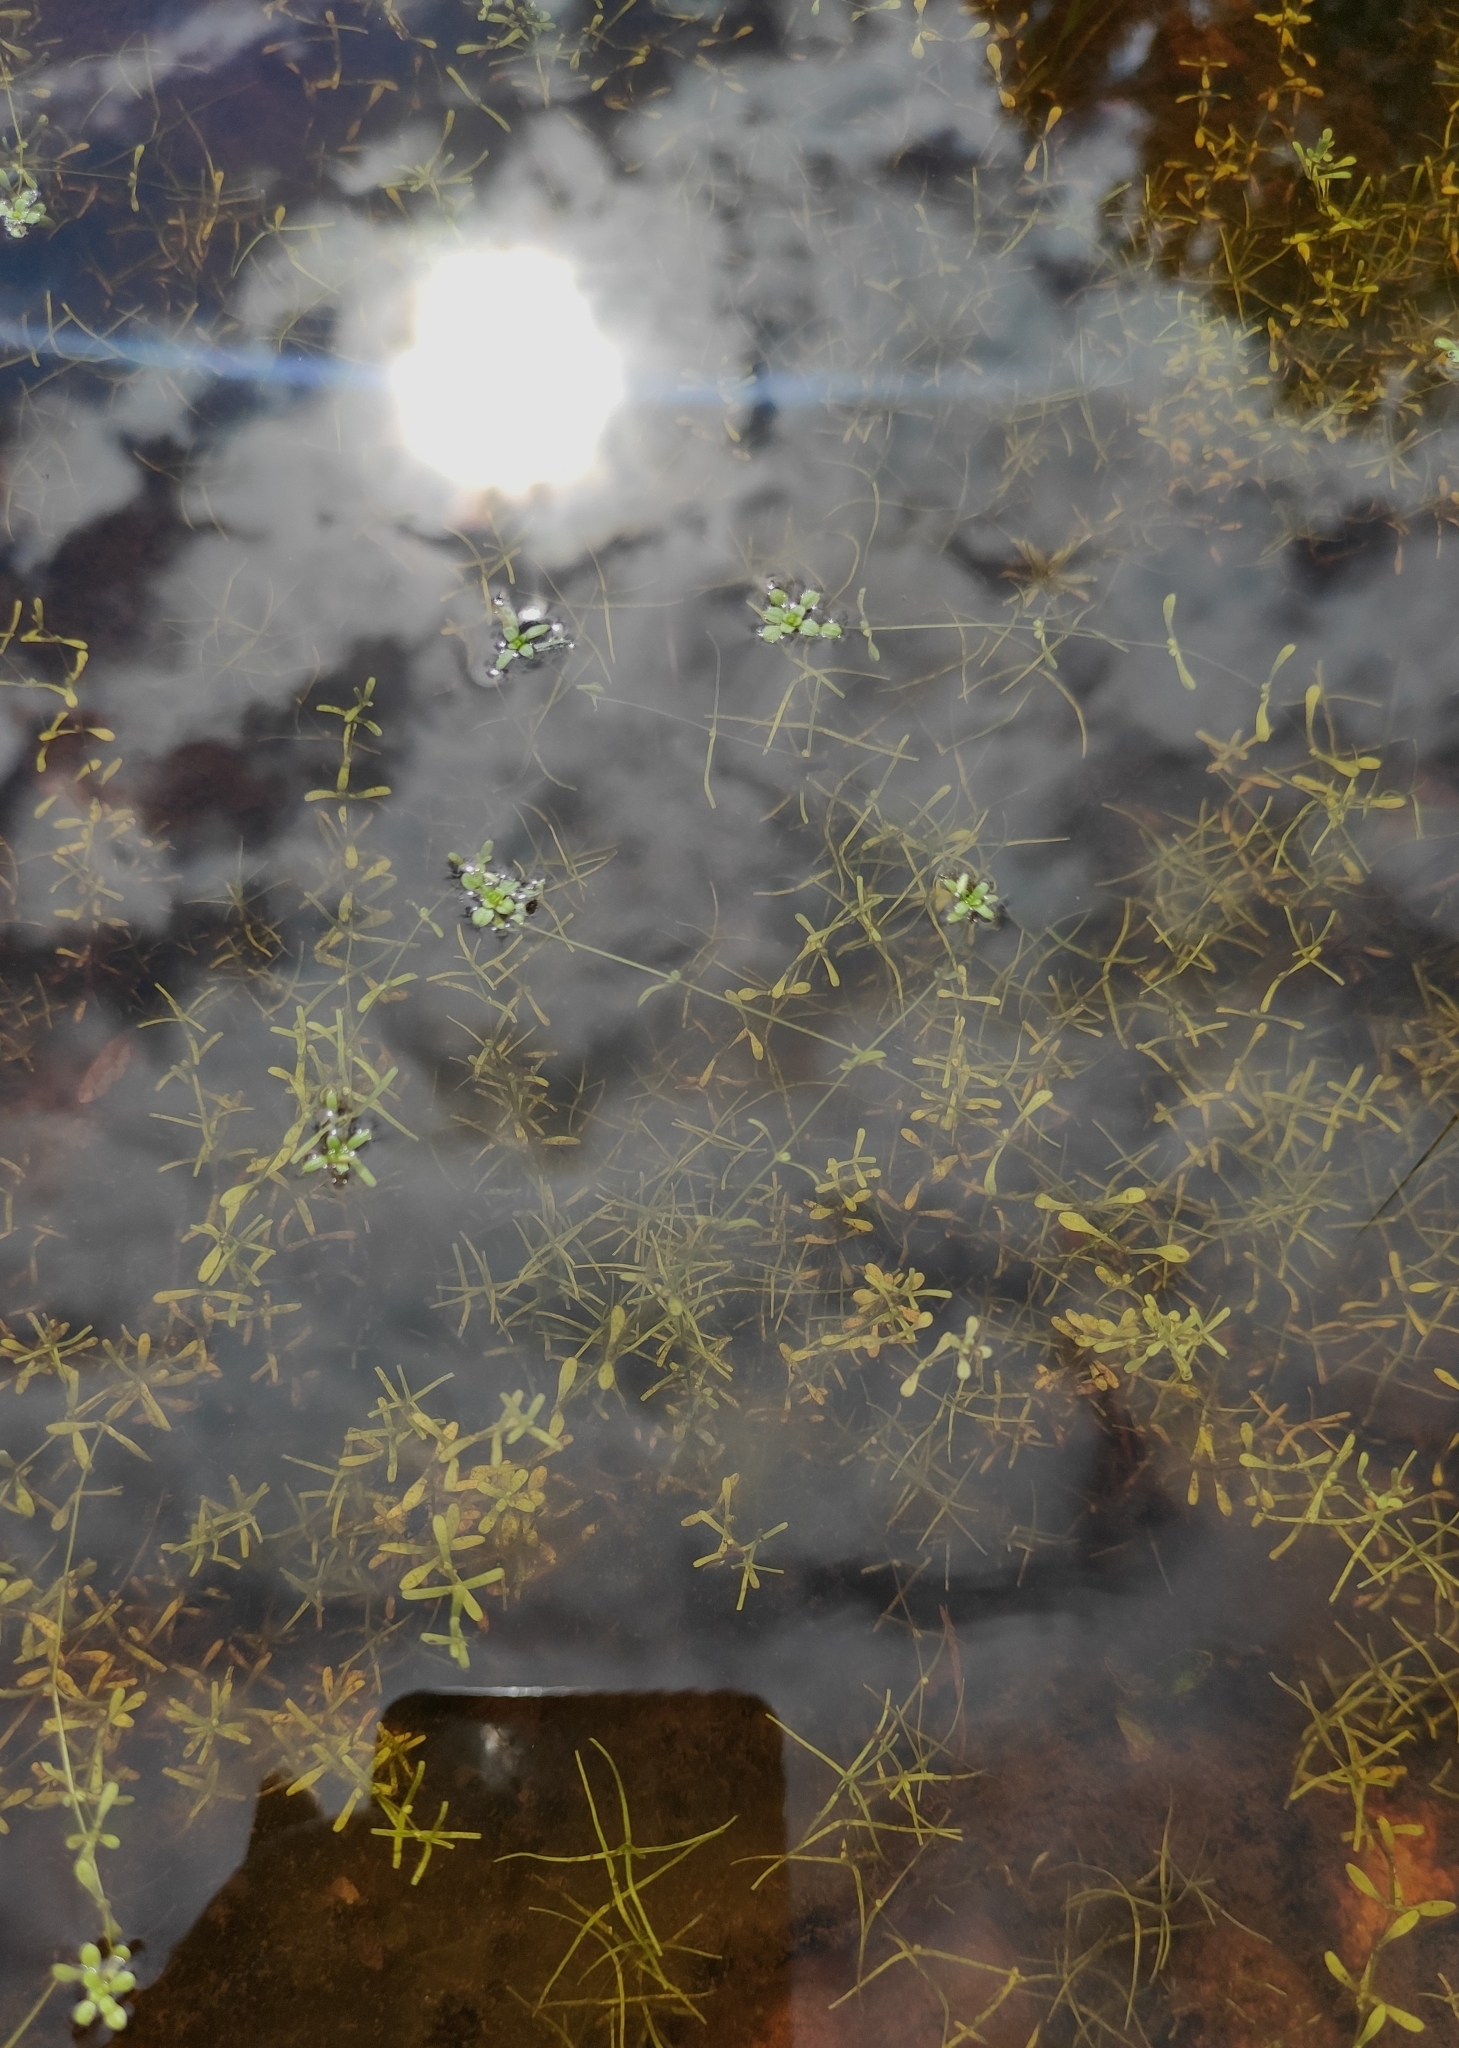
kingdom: Plantae
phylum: Tracheophyta
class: Magnoliopsida
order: Lamiales
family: Plantaginaceae
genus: Callitriche
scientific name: Callitriche palustris
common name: Spring water-starwort
